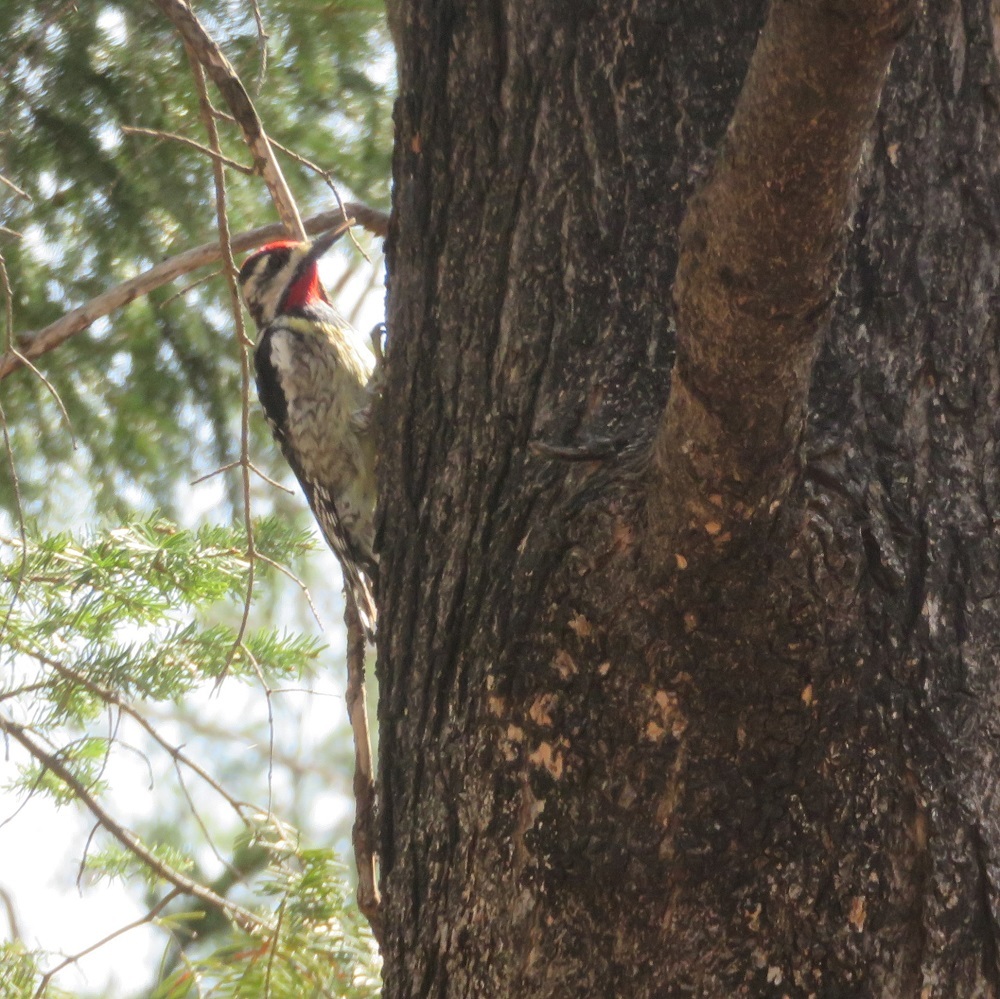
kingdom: Animalia
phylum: Chordata
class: Aves
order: Piciformes
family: Picidae
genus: Sphyrapicus
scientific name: Sphyrapicus varius
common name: Yellow-bellied sapsucker
